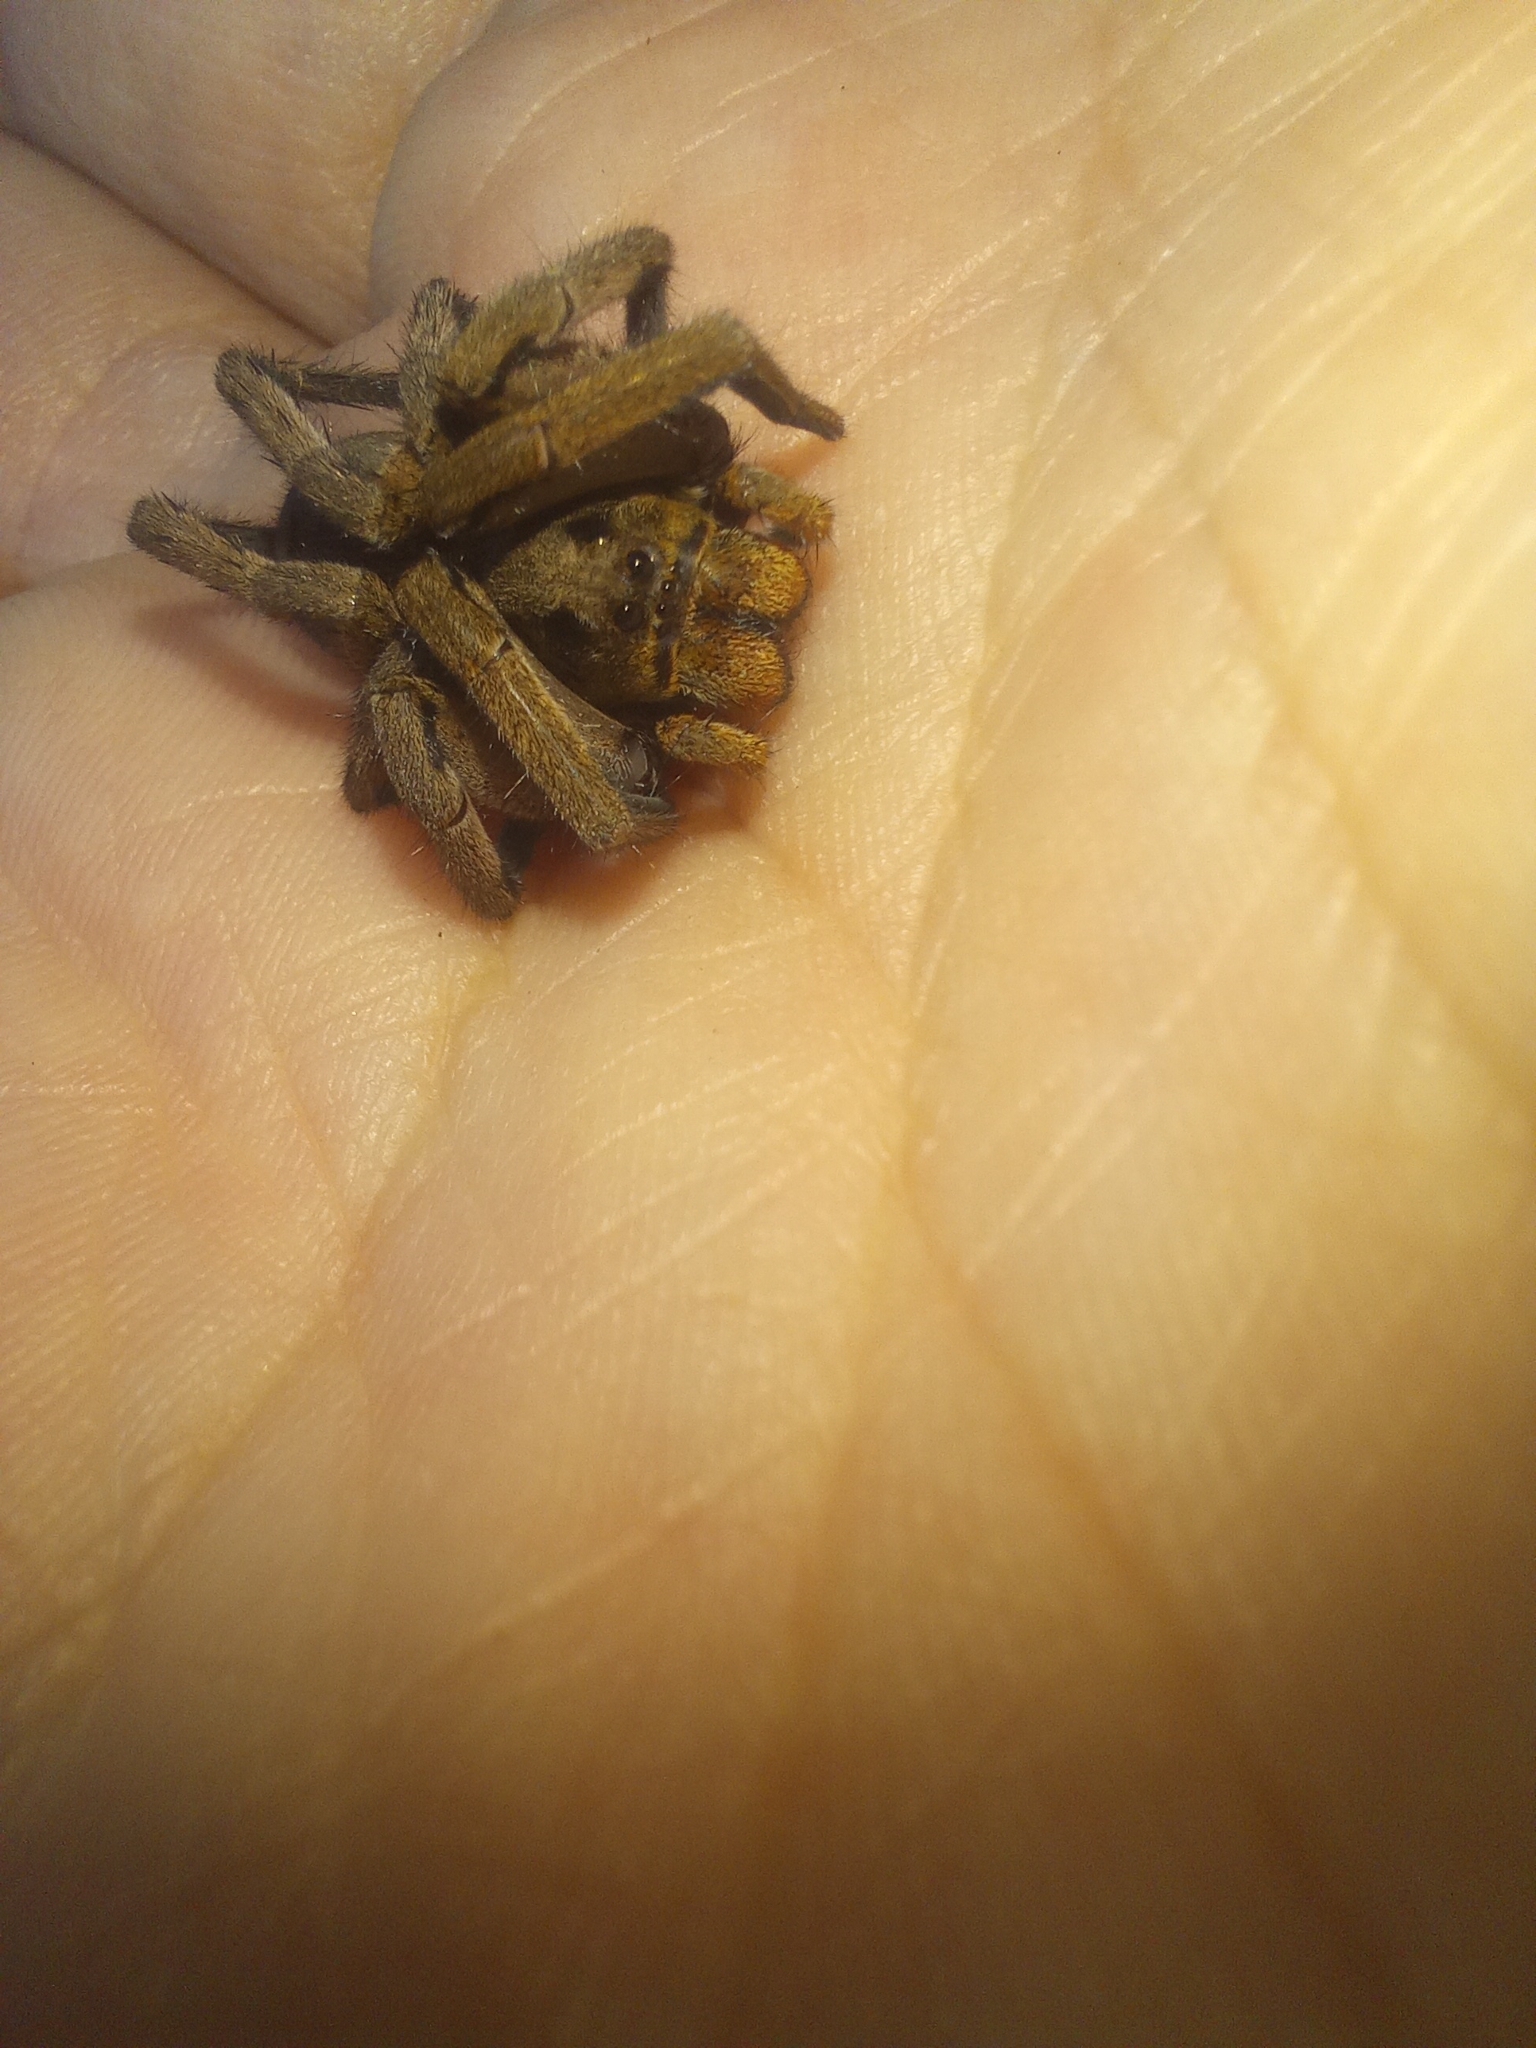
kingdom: Animalia
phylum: Arthropoda
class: Arachnida
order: Araneae
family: Lycosidae
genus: Lycosa
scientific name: Lycosa erythrognatha
